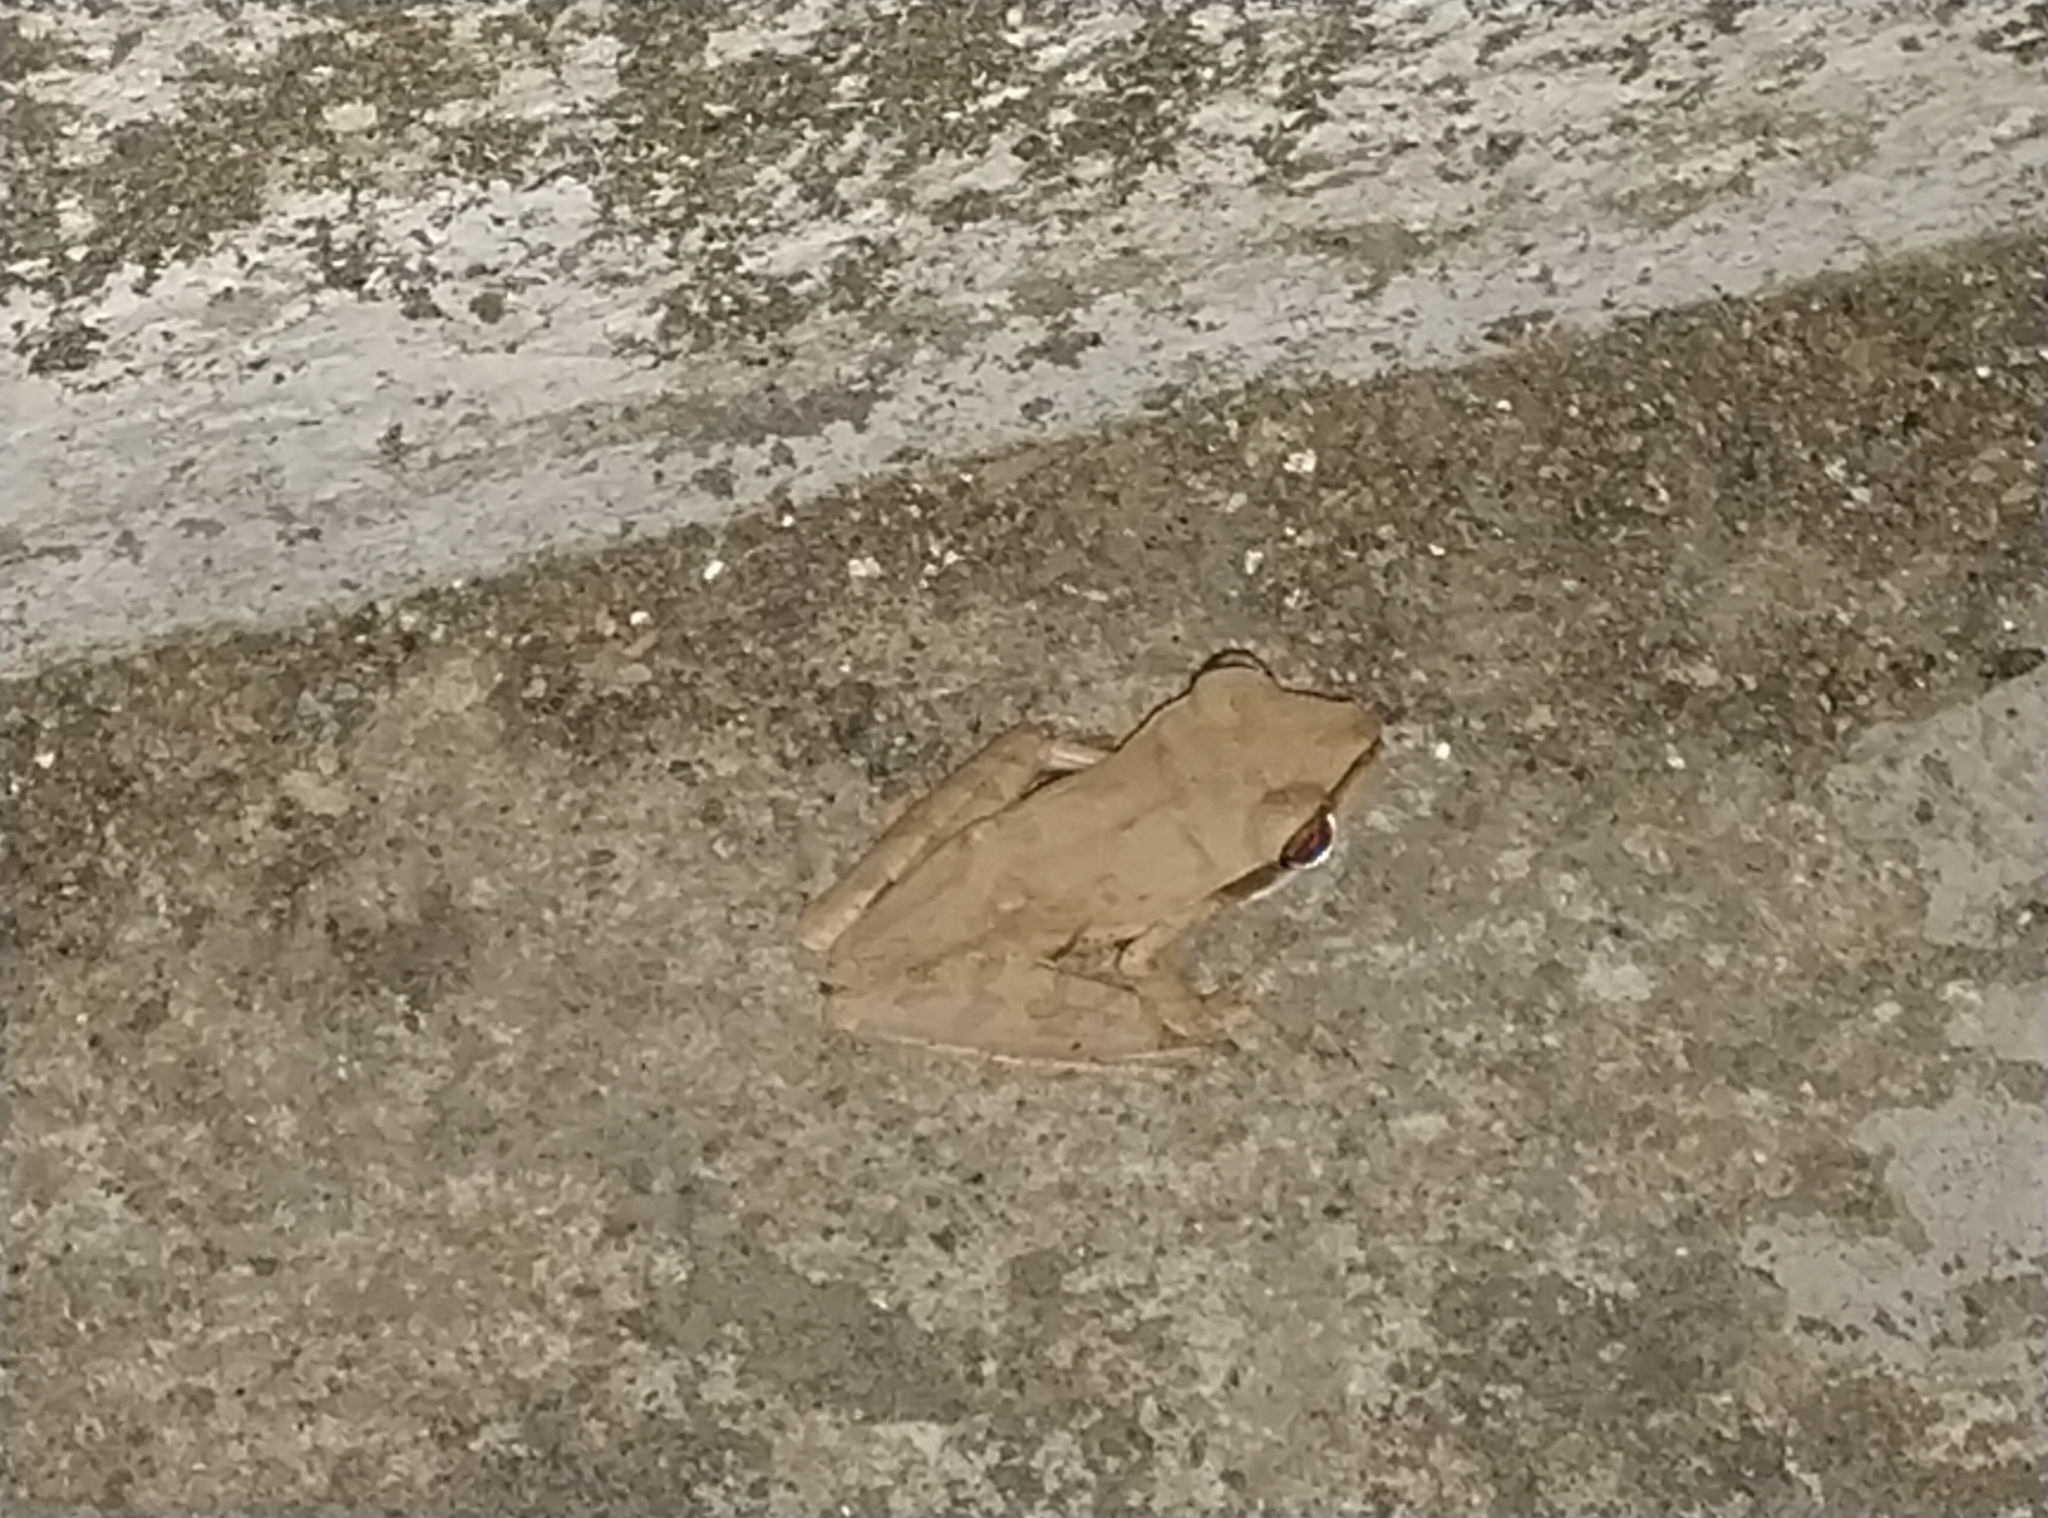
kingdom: Animalia
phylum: Chordata
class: Amphibia
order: Anura
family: Rhacophoridae
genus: Polypedates
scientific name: Polypedates maculatus
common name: Himalayan tree frog
